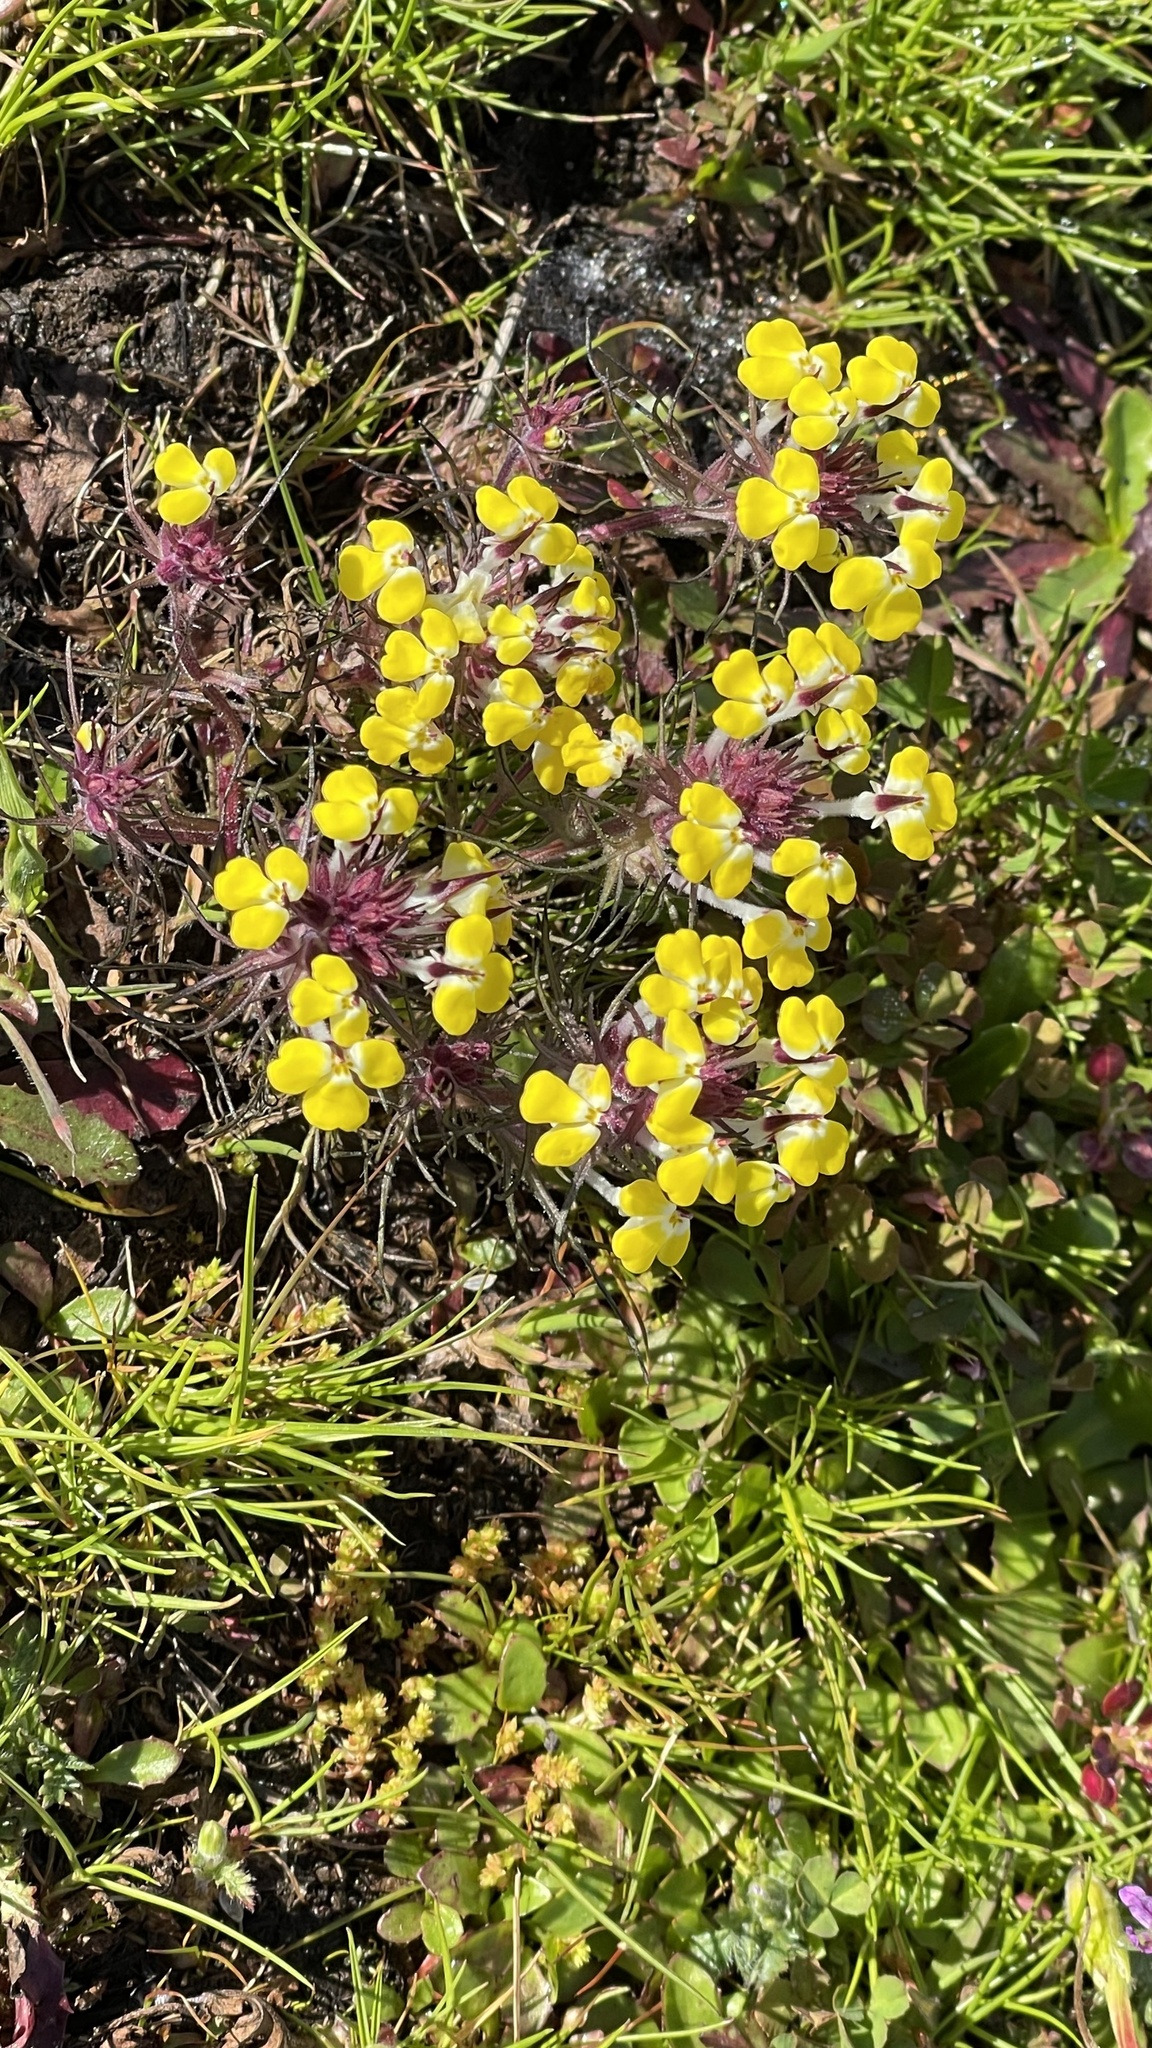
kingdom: Plantae
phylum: Tracheophyta
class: Magnoliopsida
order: Lamiales
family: Orobanchaceae
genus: Triphysaria
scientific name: Triphysaria eriantha
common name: Johnny-tuck
